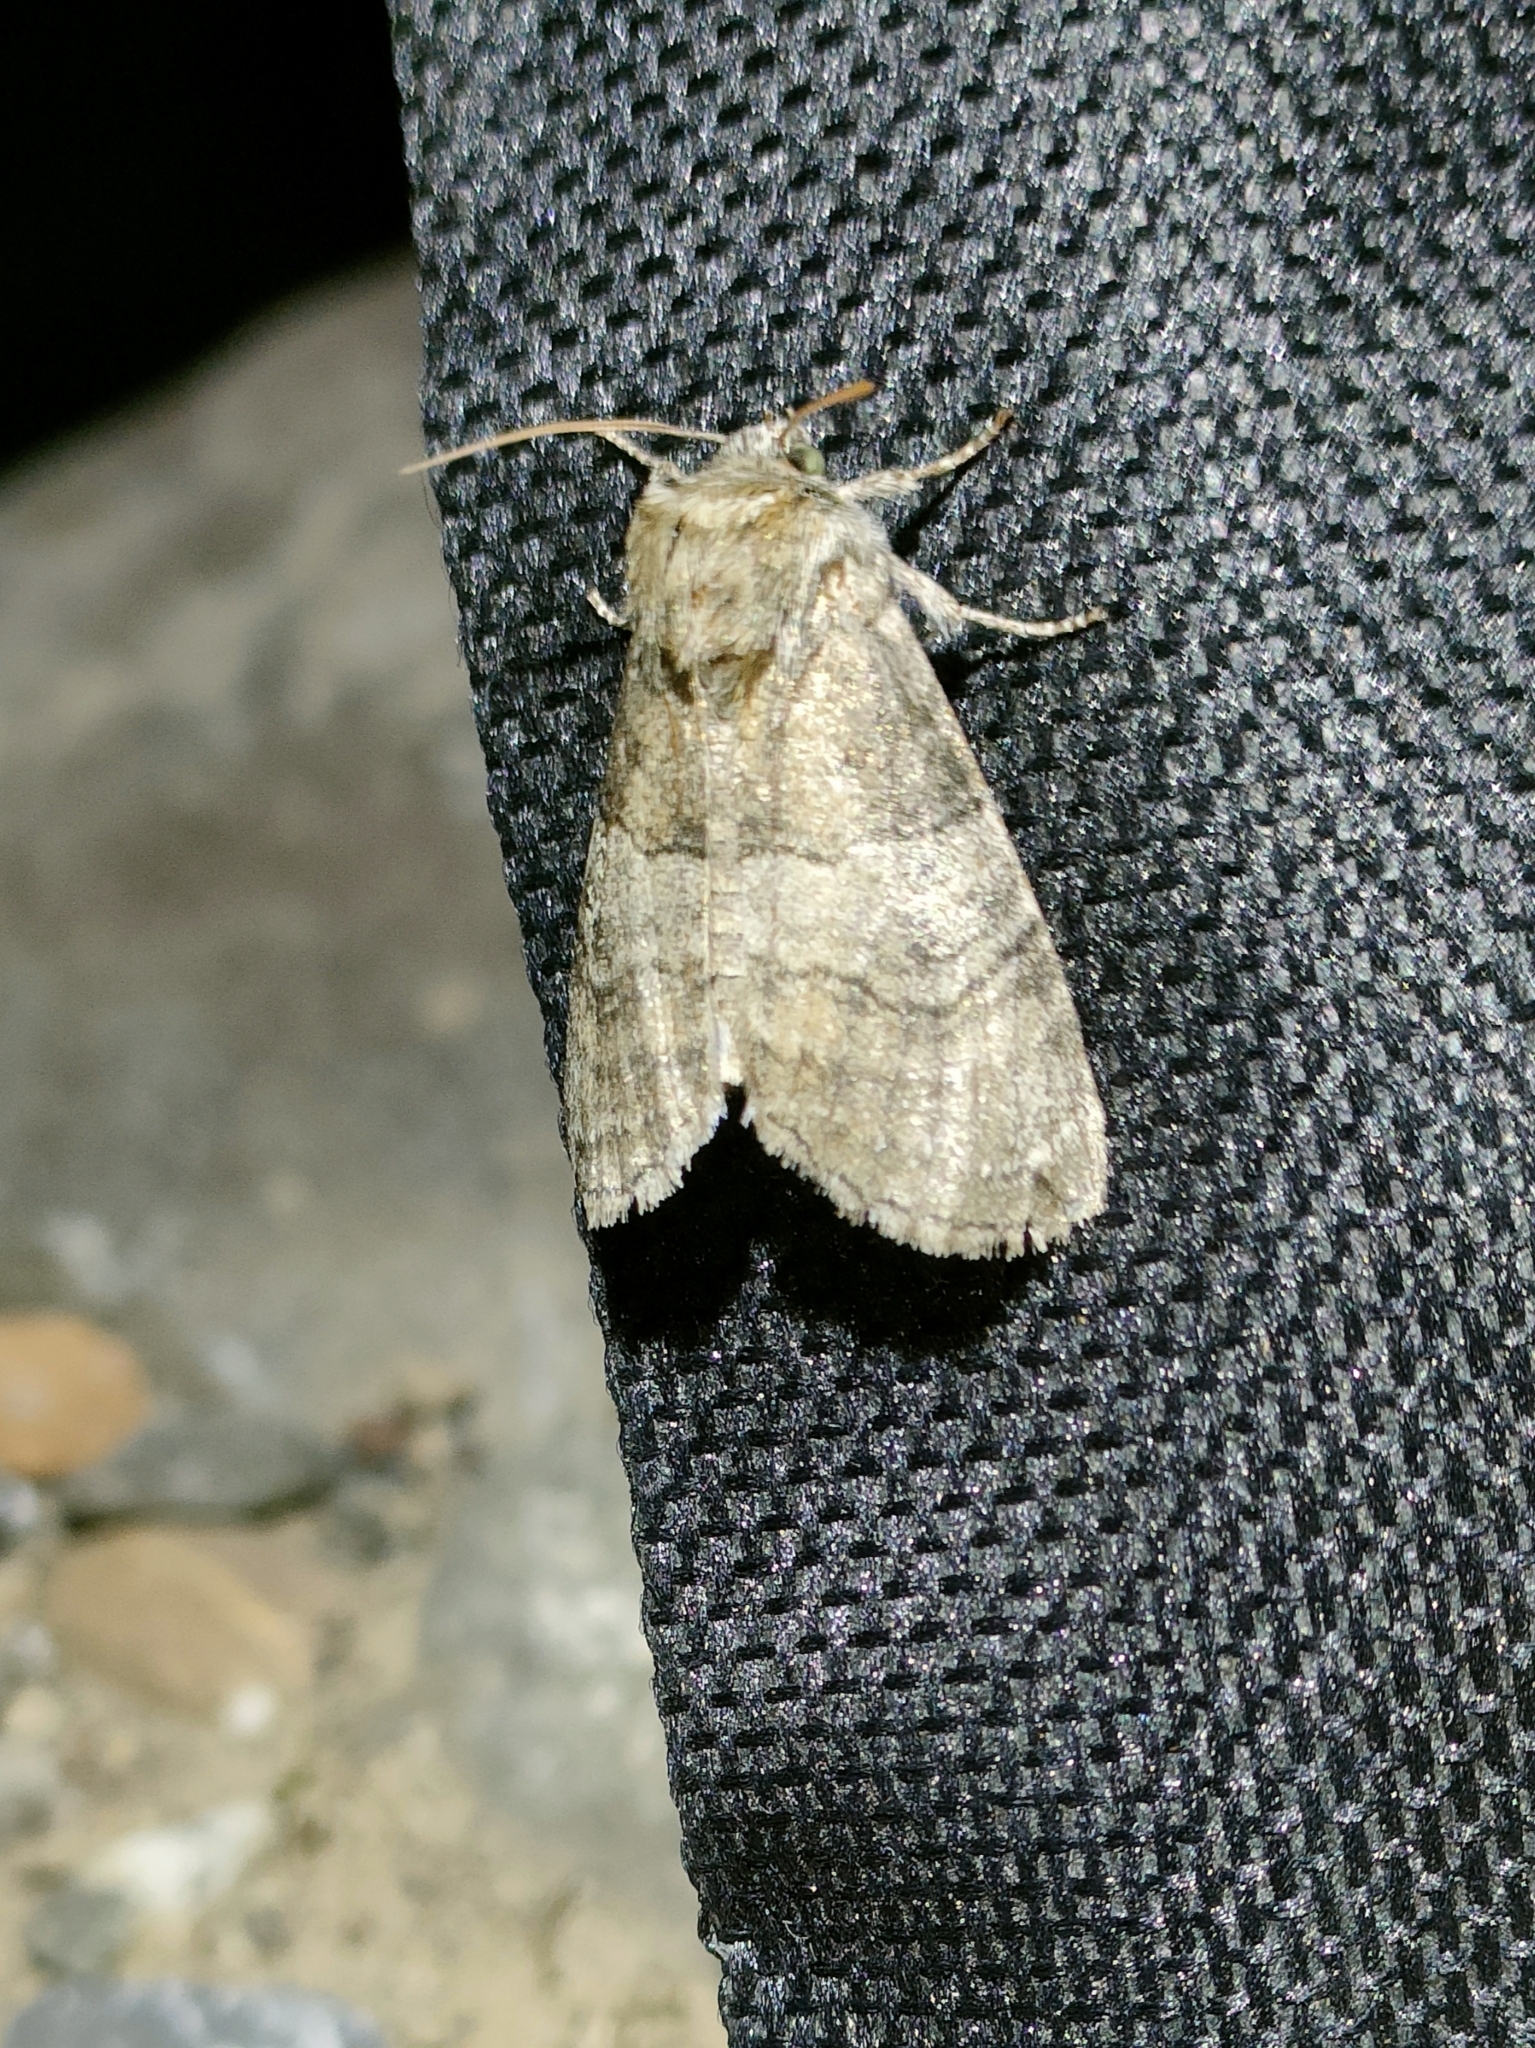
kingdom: Animalia
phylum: Arthropoda
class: Insecta
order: Lepidoptera
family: Drepanidae
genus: Tethea
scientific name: Tethea ocularis
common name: Figure of eighty
